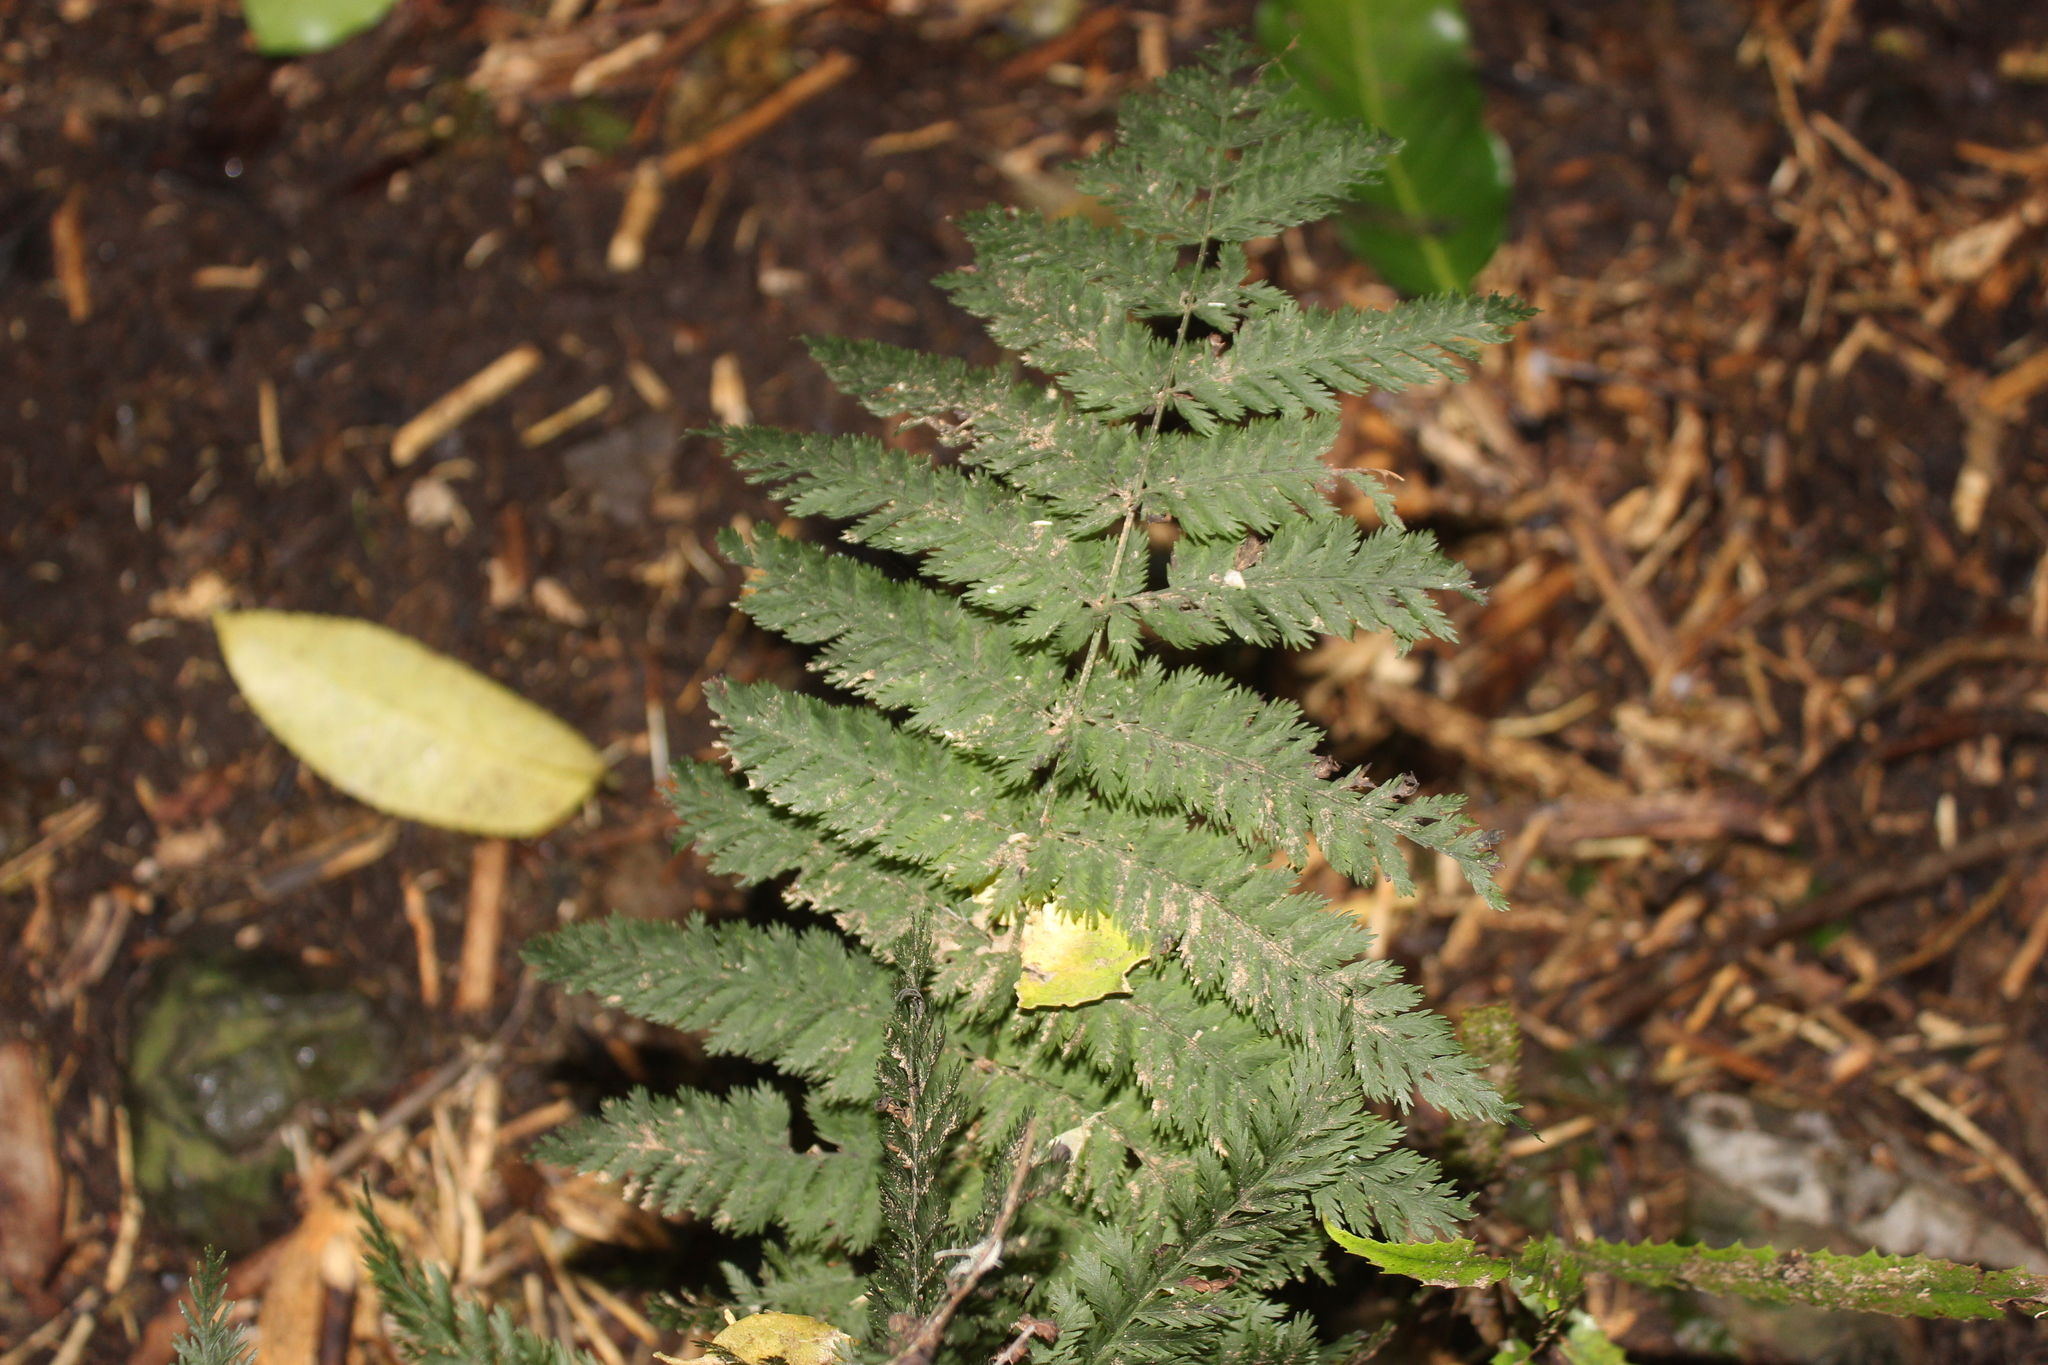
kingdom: Plantae
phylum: Tracheophyta
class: Polypodiopsida
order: Osmundales
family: Osmundaceae
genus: Leptopteris
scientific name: Leptopteris hymenophylloides
